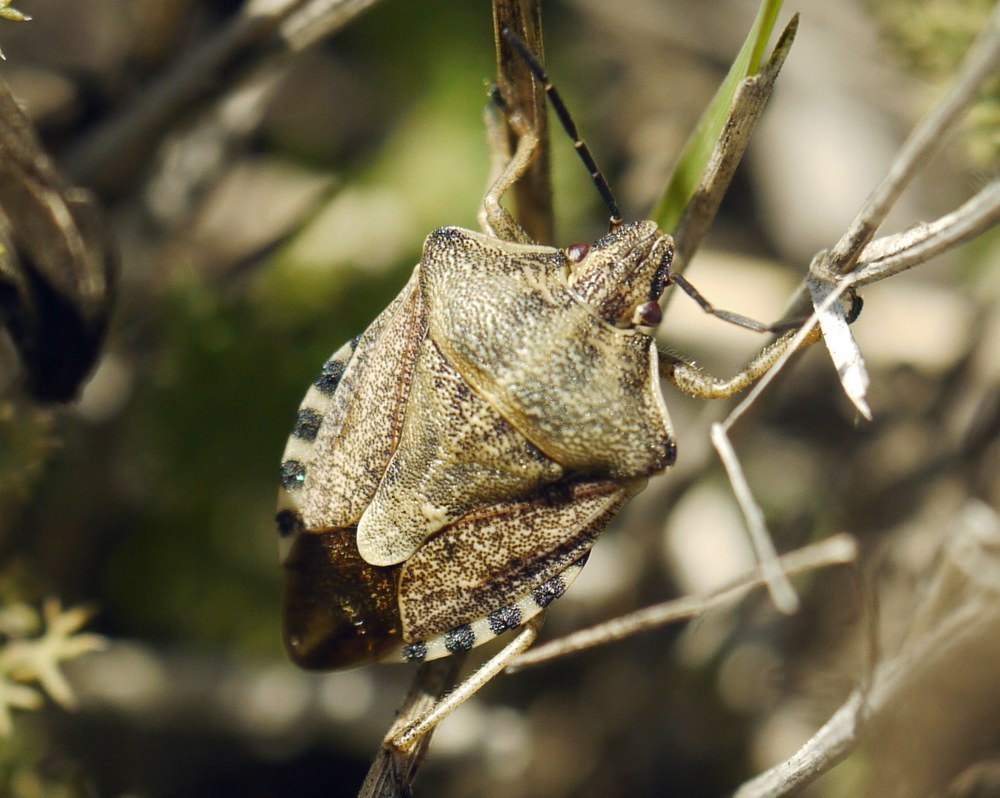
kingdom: Animalia
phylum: Arthropoda
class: Insecta
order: Hemiptera
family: Pentatomidae
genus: Carpocoris
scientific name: Carpocoris purpureipennis
